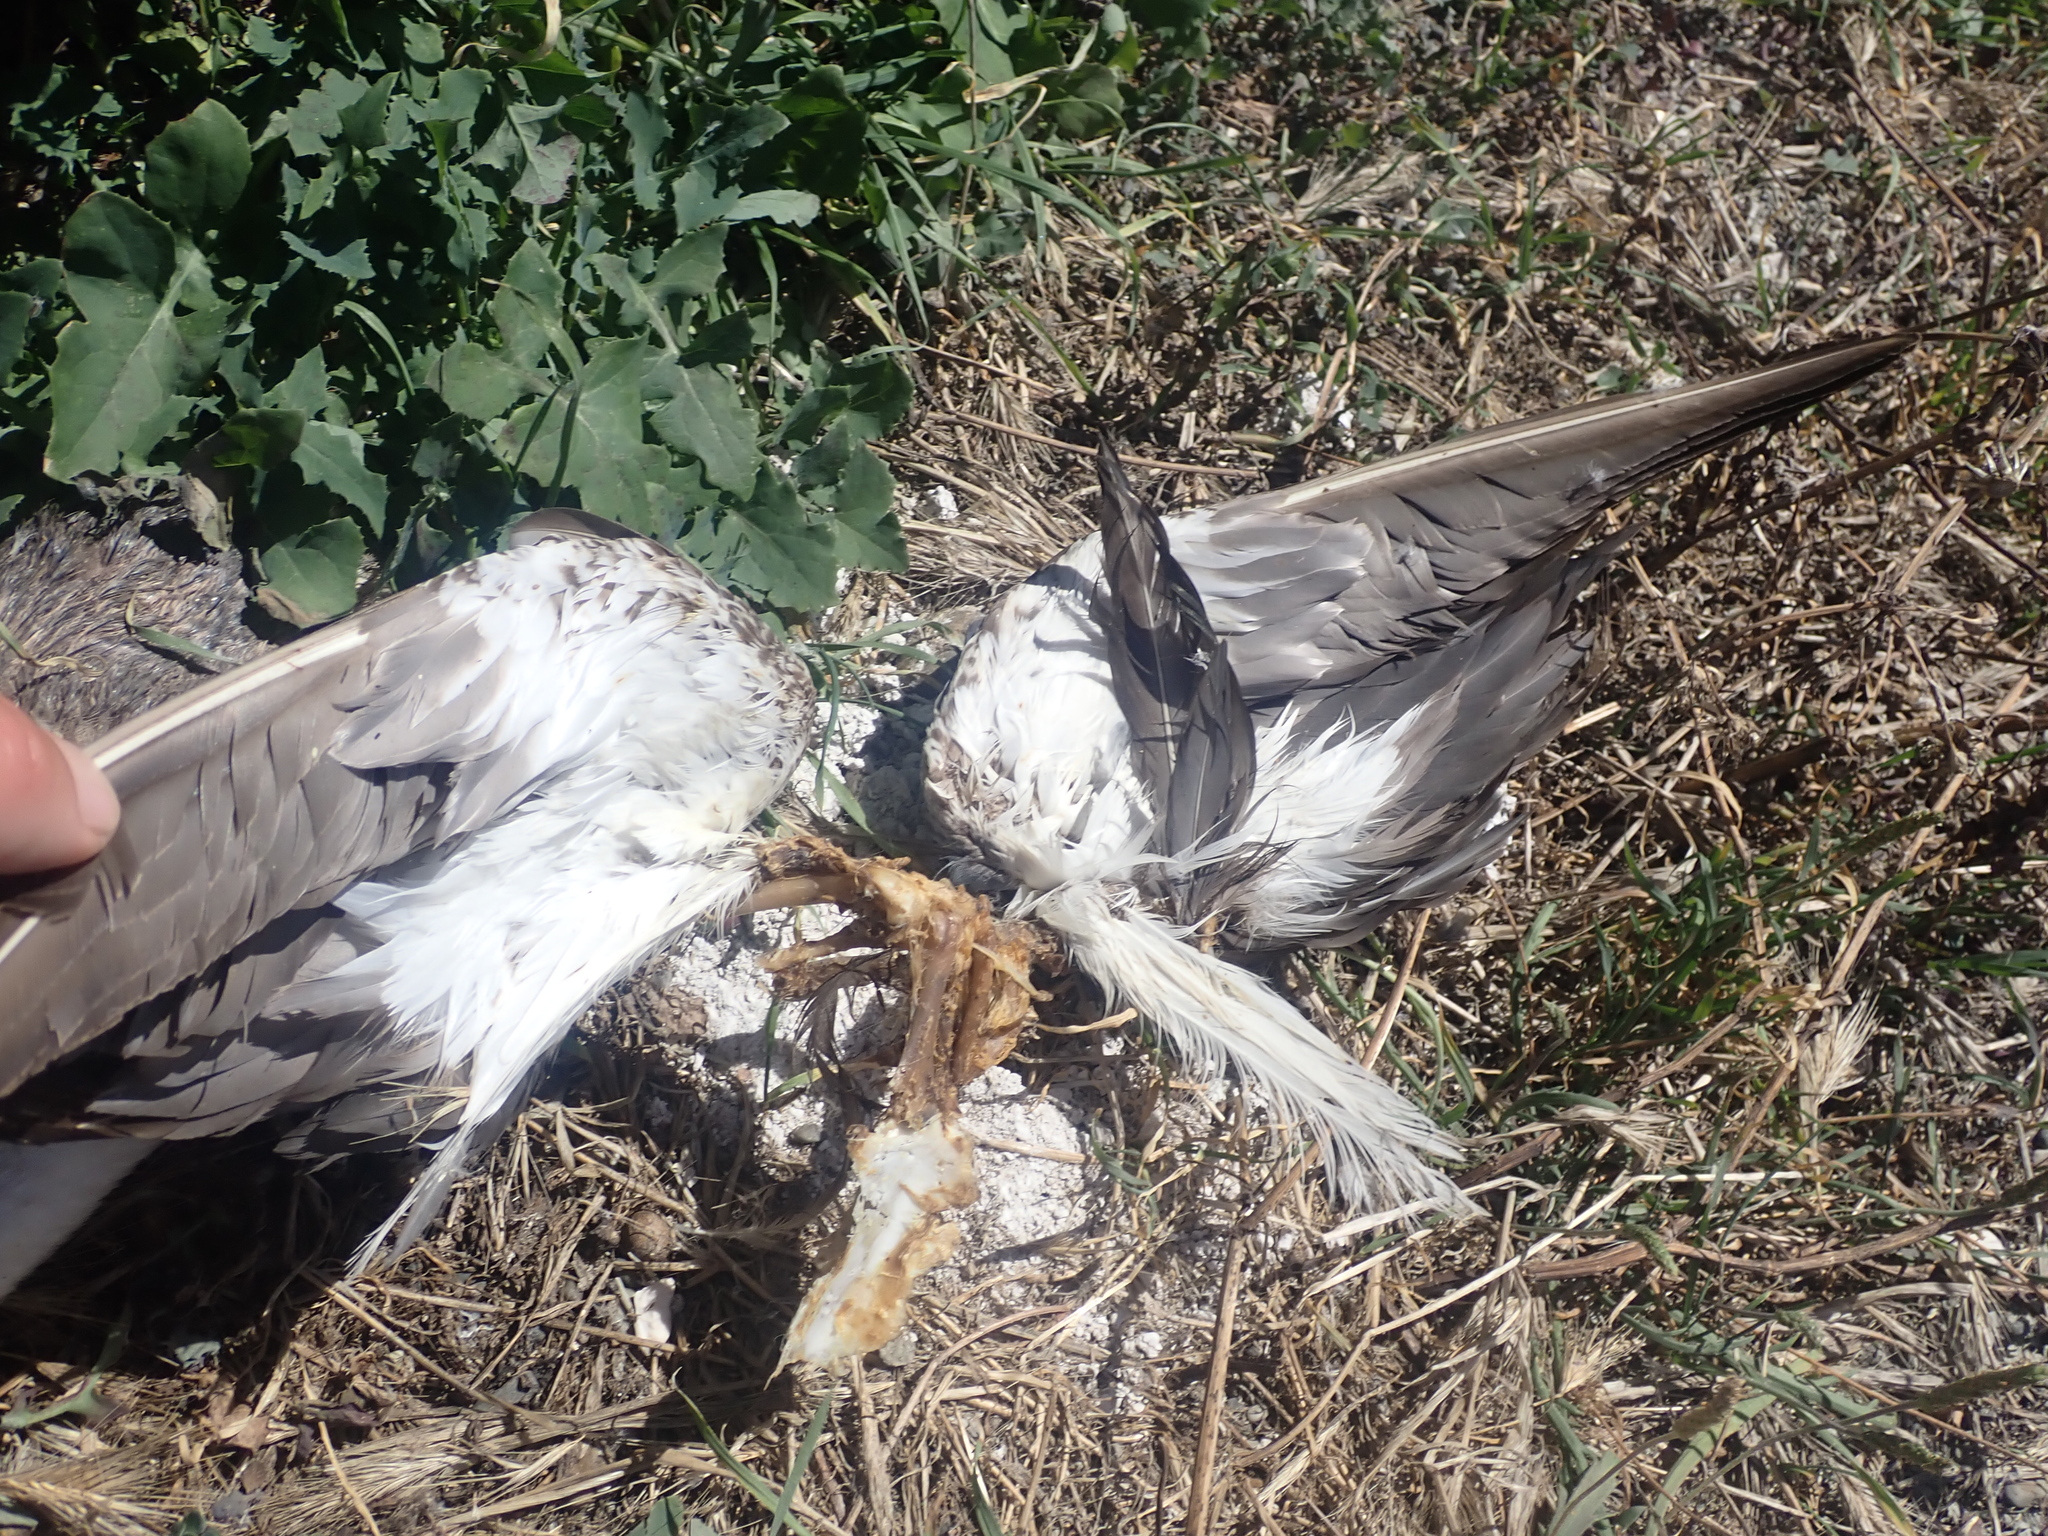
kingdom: Animalia
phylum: Chordata
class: Aves
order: Passeriformes
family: Meliphagidae
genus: Prosthemadera
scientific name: Prosthemadera novaeseelandiae
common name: Tui
